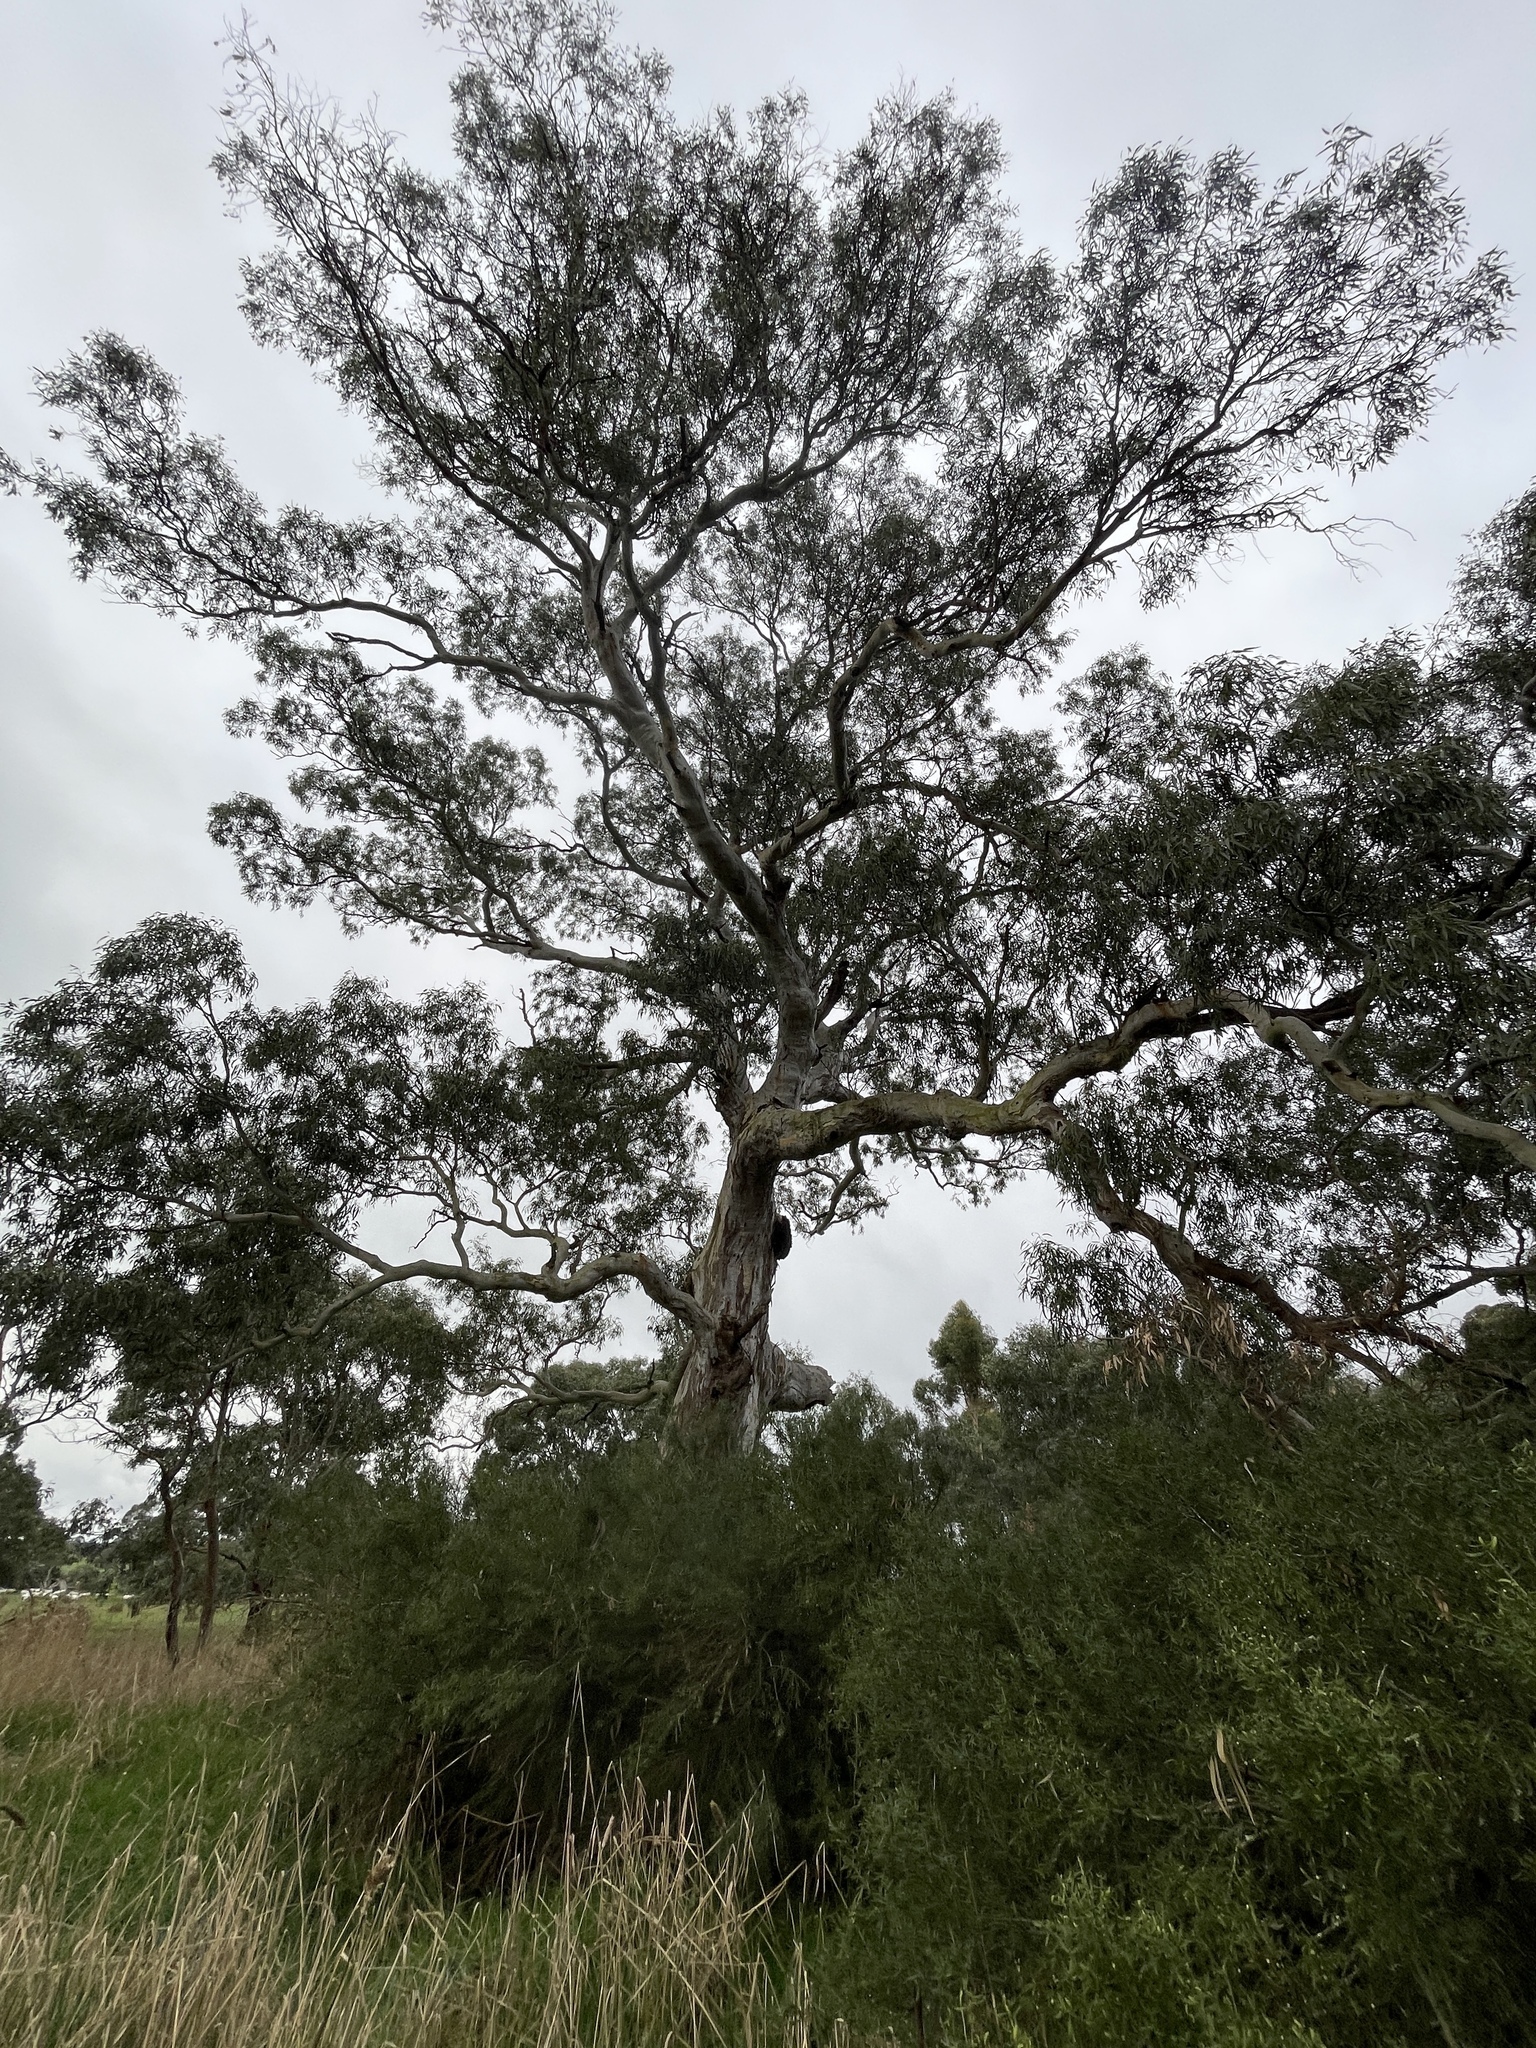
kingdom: Plantae
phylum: Tracheophyta
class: Magnoliopsida
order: Myrtales
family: Myrtaceae
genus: Eucalyptus
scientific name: Eucalyptus camaldulensis
